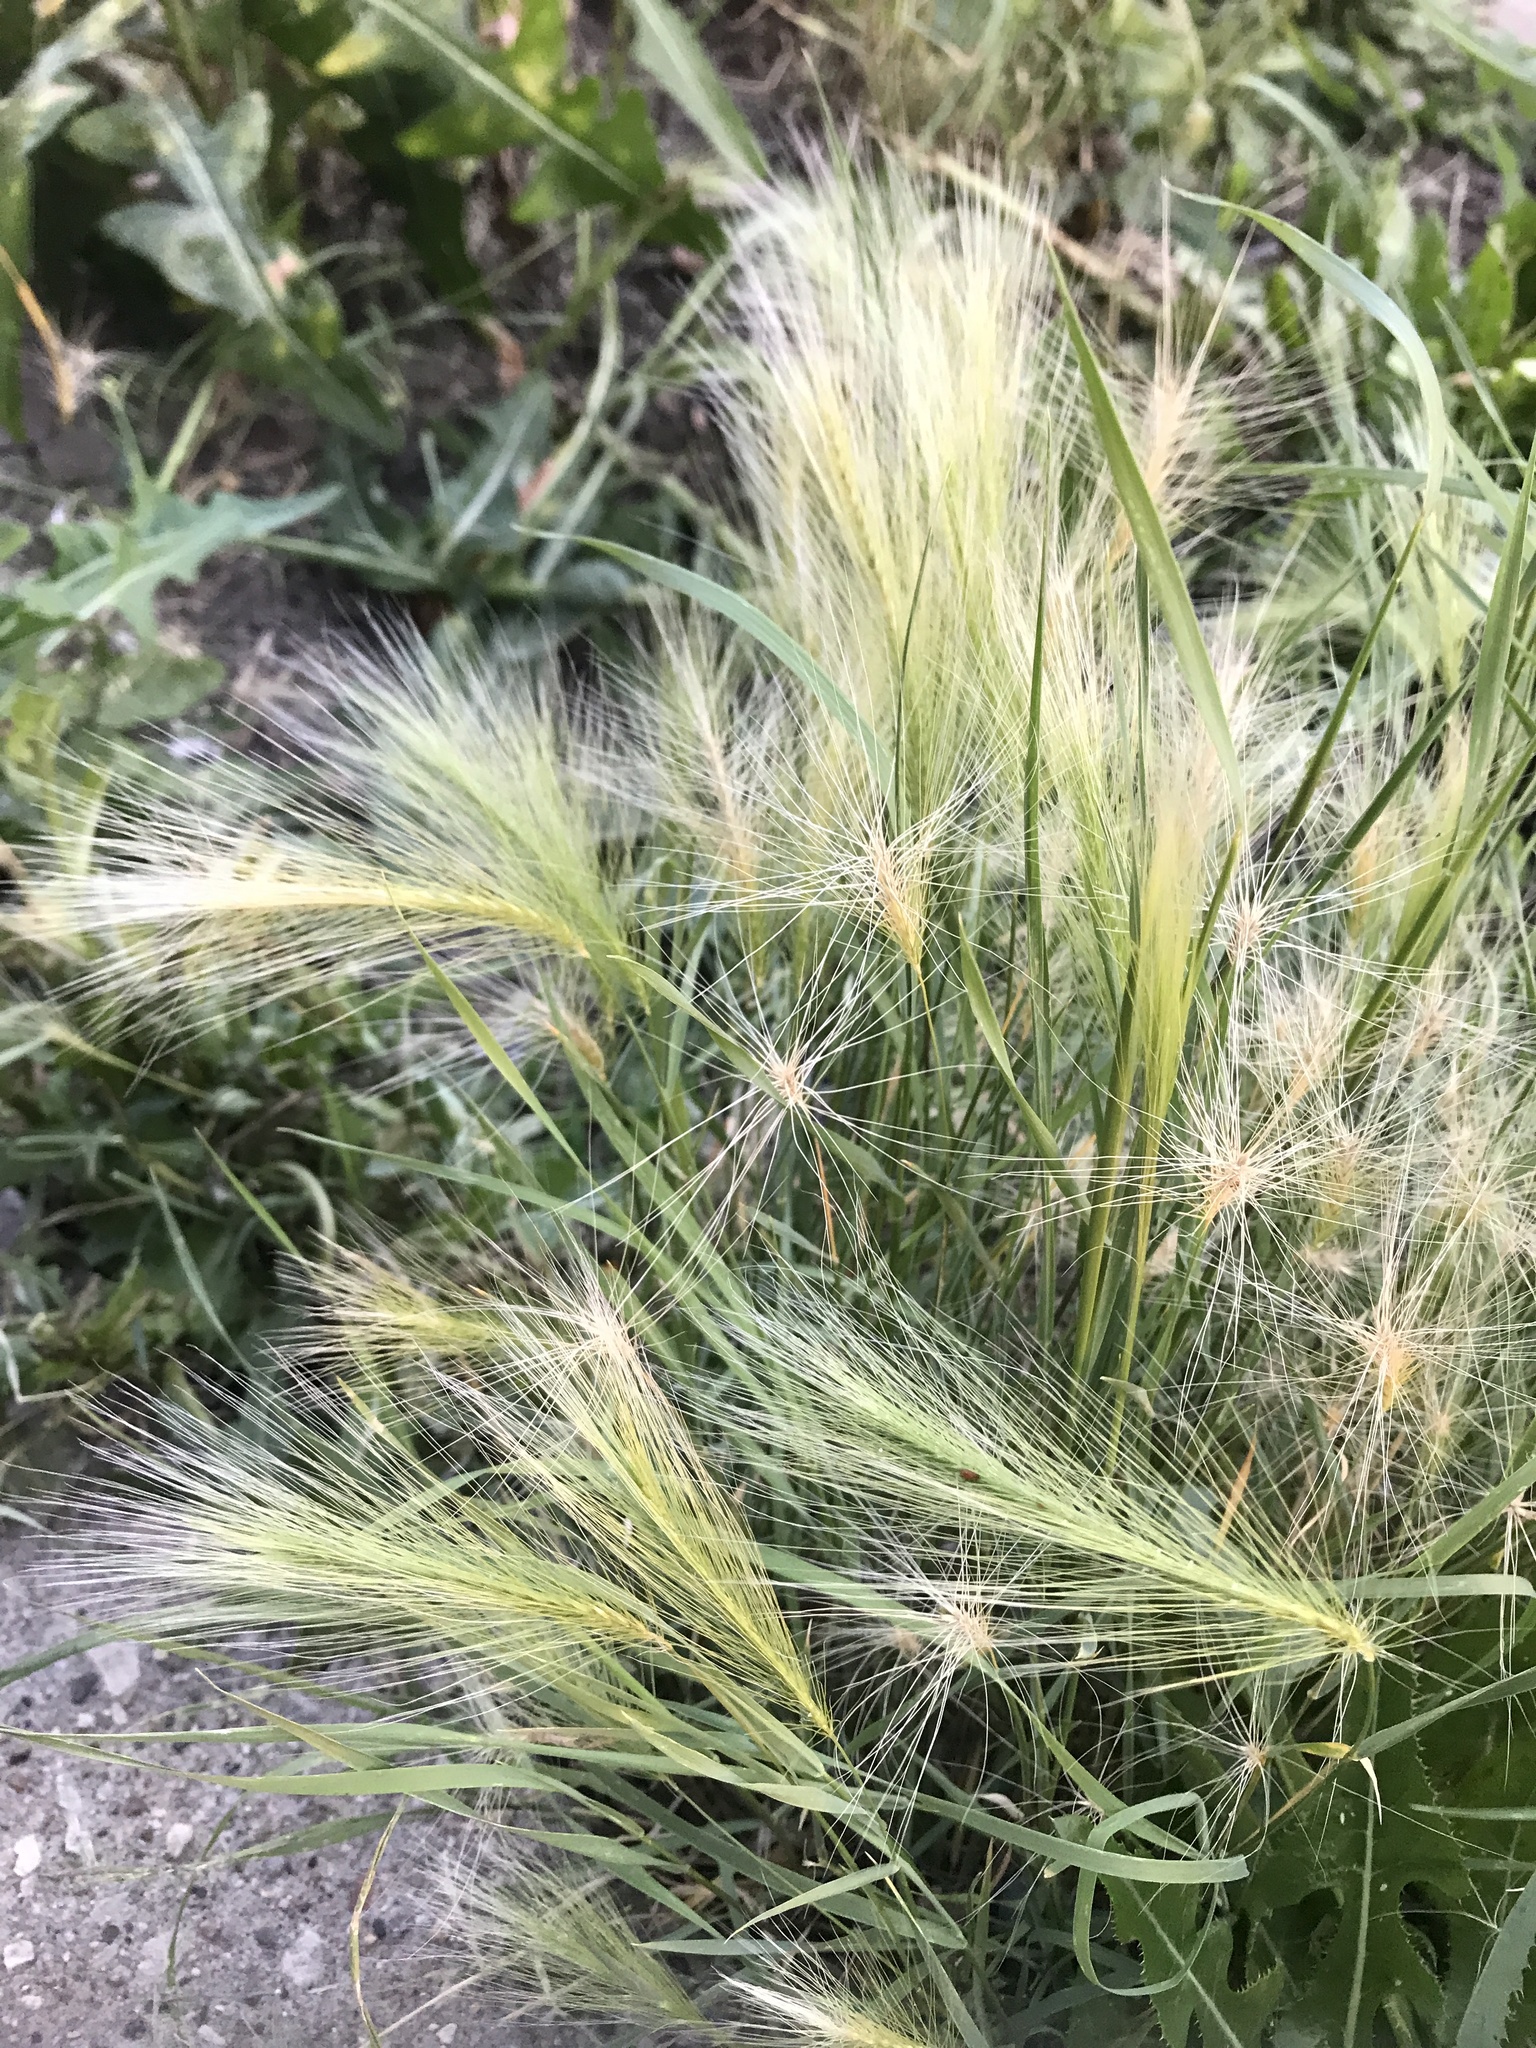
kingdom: Plantae
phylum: Tracheophyta
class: Liliopsida
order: Poales
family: Poaceae
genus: Hordeum
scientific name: Hordeum jubatum
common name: Foxtail barley
